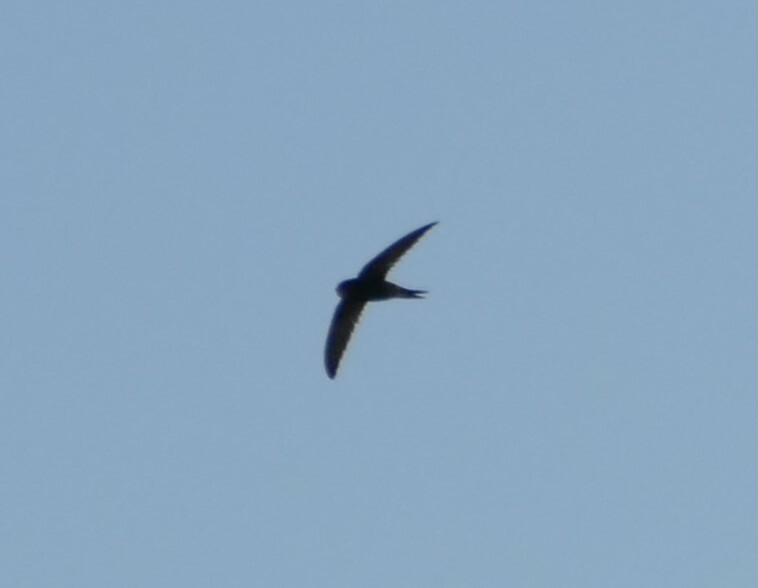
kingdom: Animalia
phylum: Chordata
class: Aves
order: Apodiformes
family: Apodidae
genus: Apus
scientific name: Apus apus
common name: Common swift
